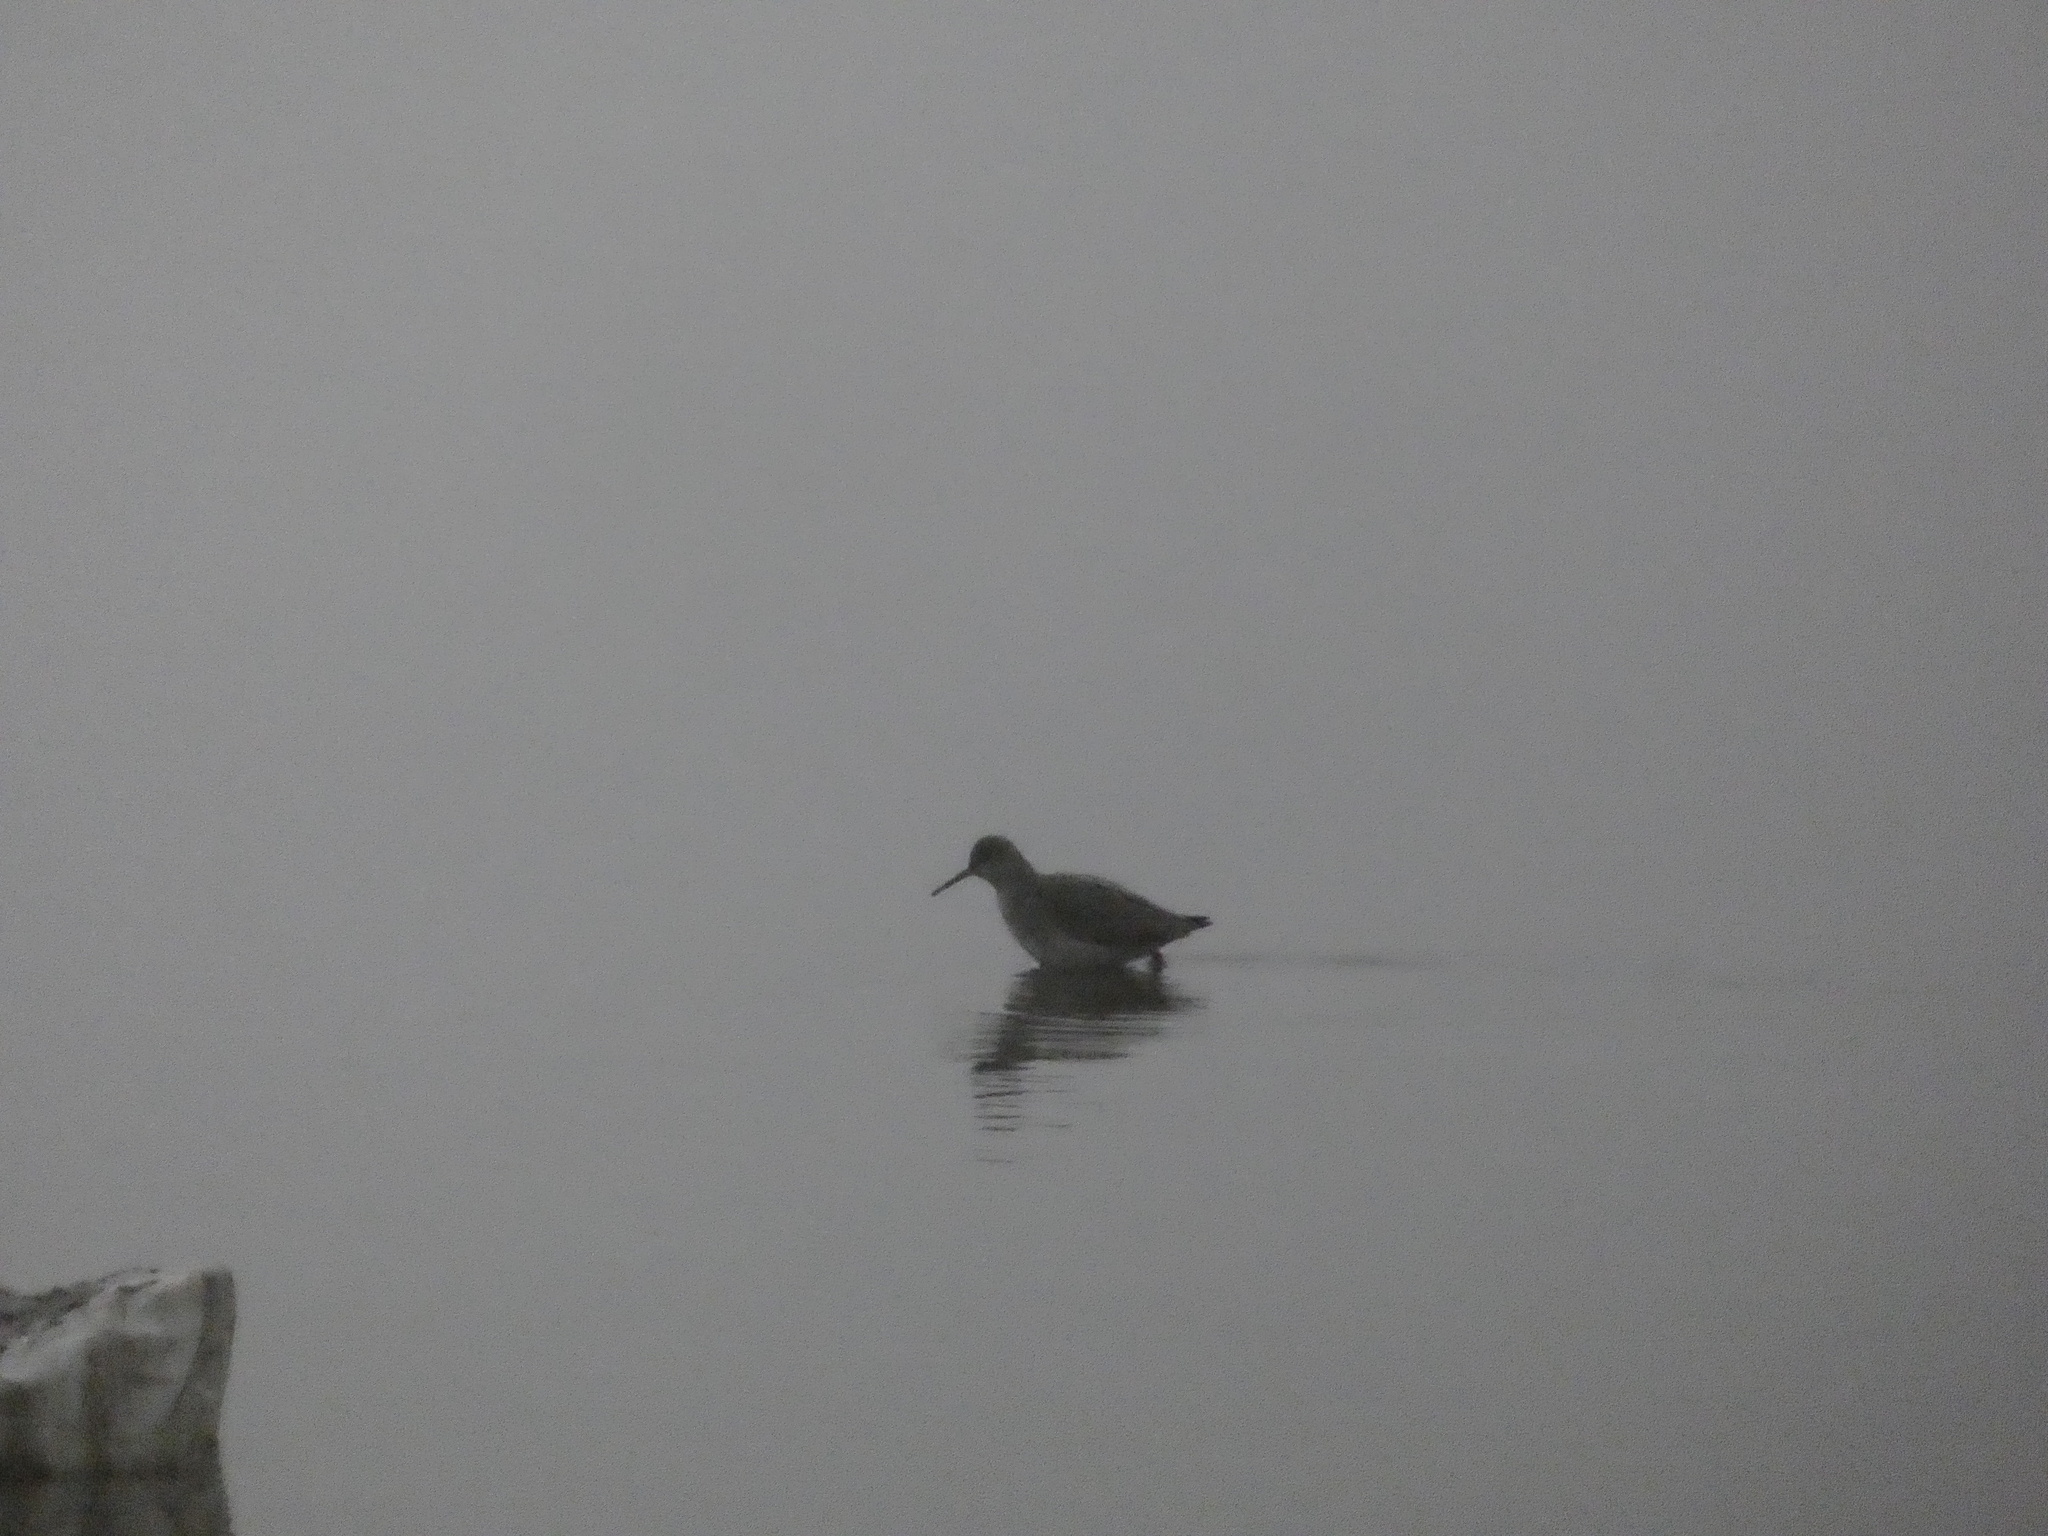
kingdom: Animalia
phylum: Chordata
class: Aves
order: Charadriiformes
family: Scolopacidae
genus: Tringa
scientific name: Tringa totanus
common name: Common redshank
